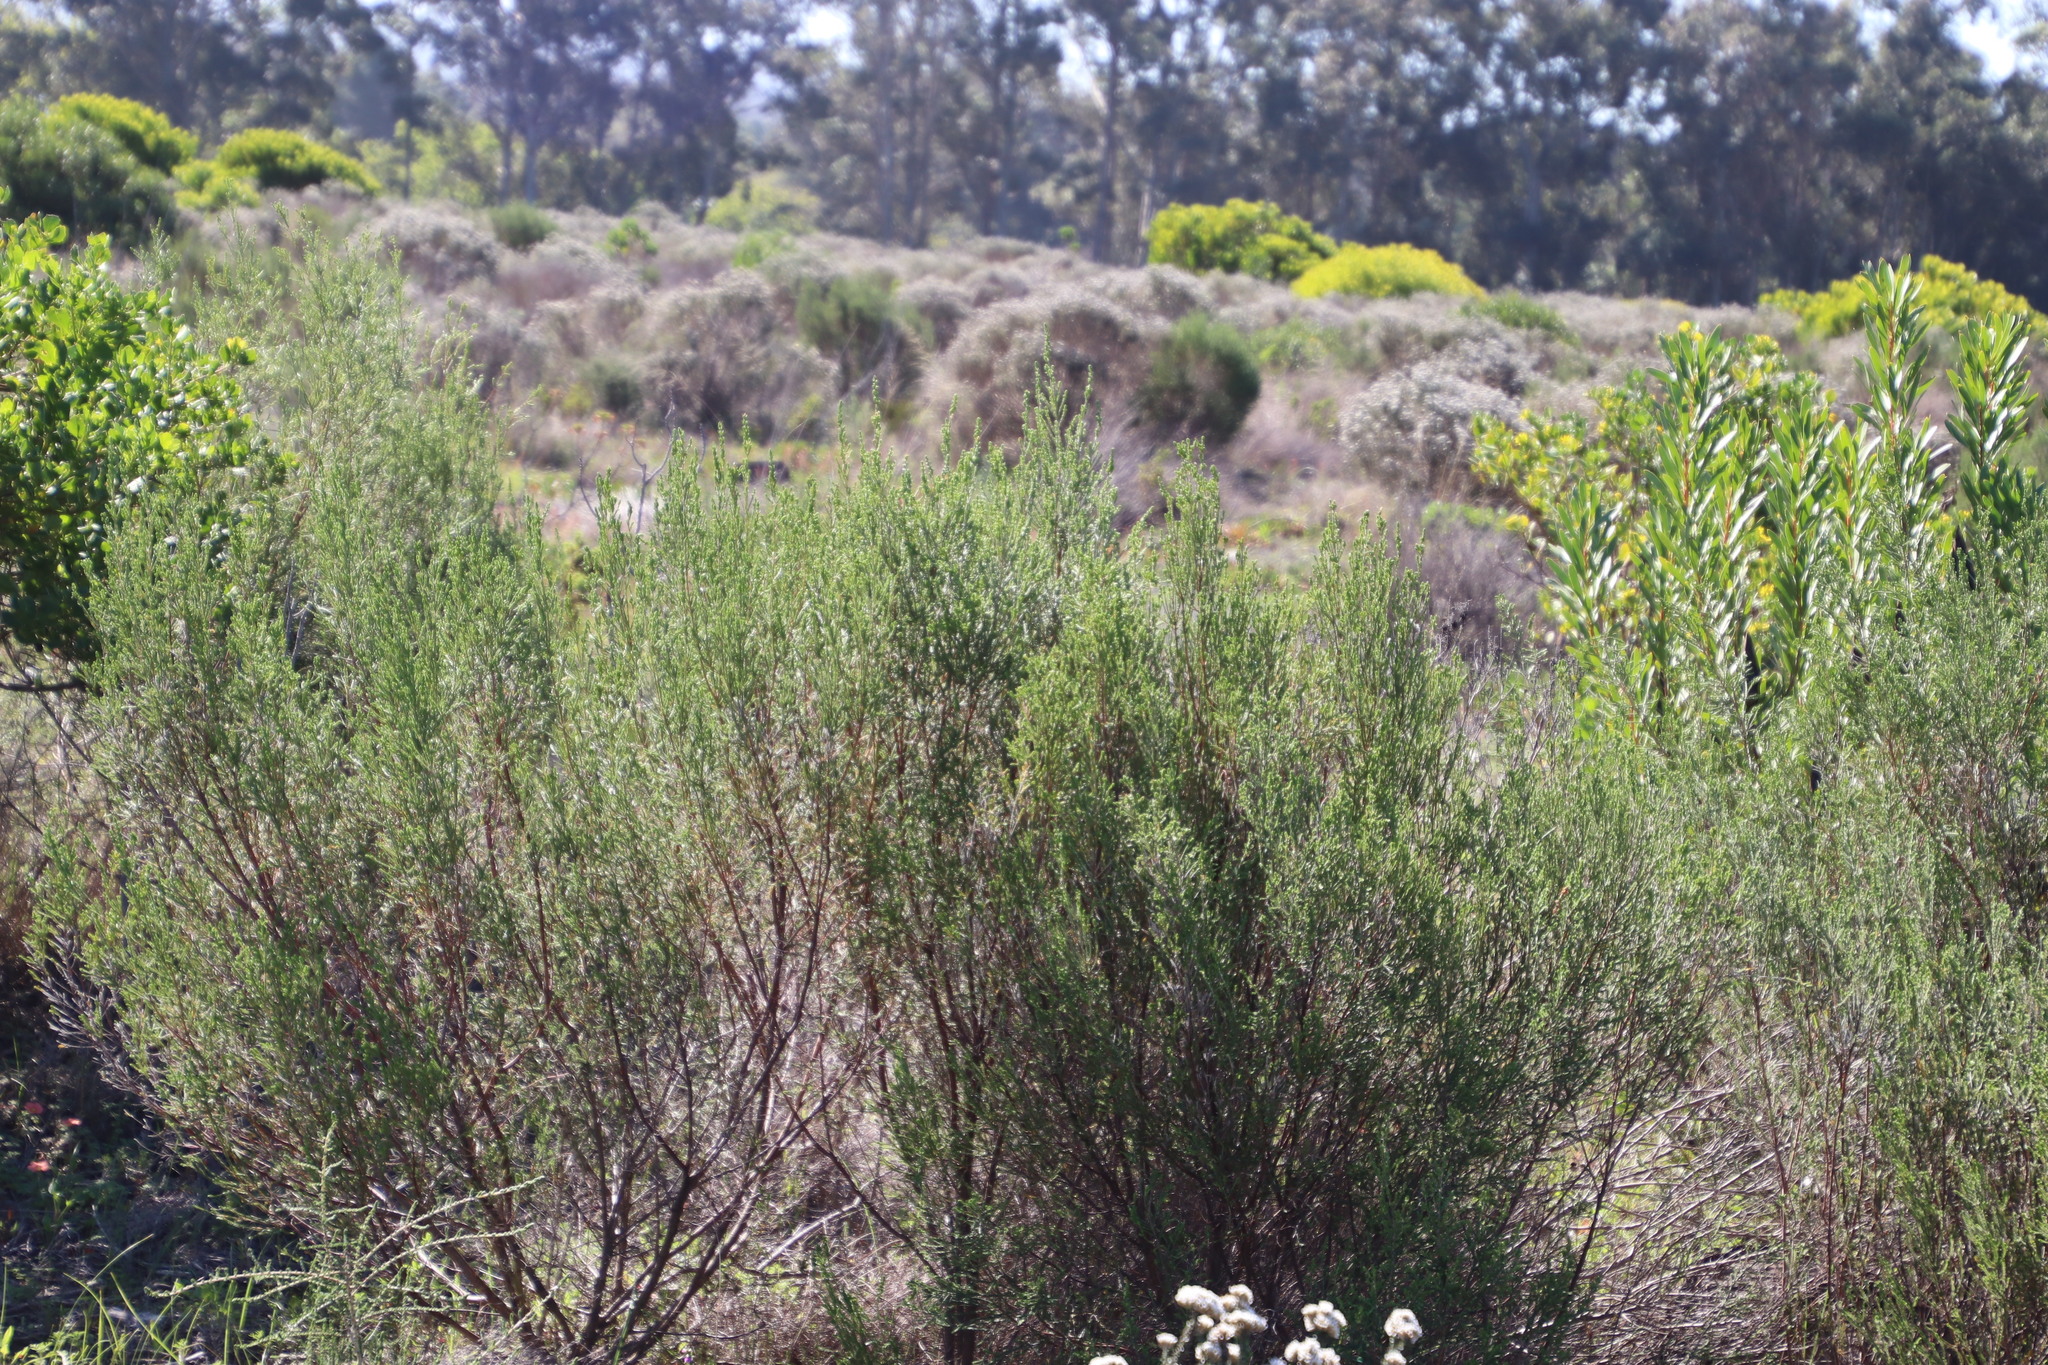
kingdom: Plantae
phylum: Tracheophyta
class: Magnoliopsida
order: Malvales
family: Thymelaeaceae
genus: Passerina
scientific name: Passerina corymbosa
